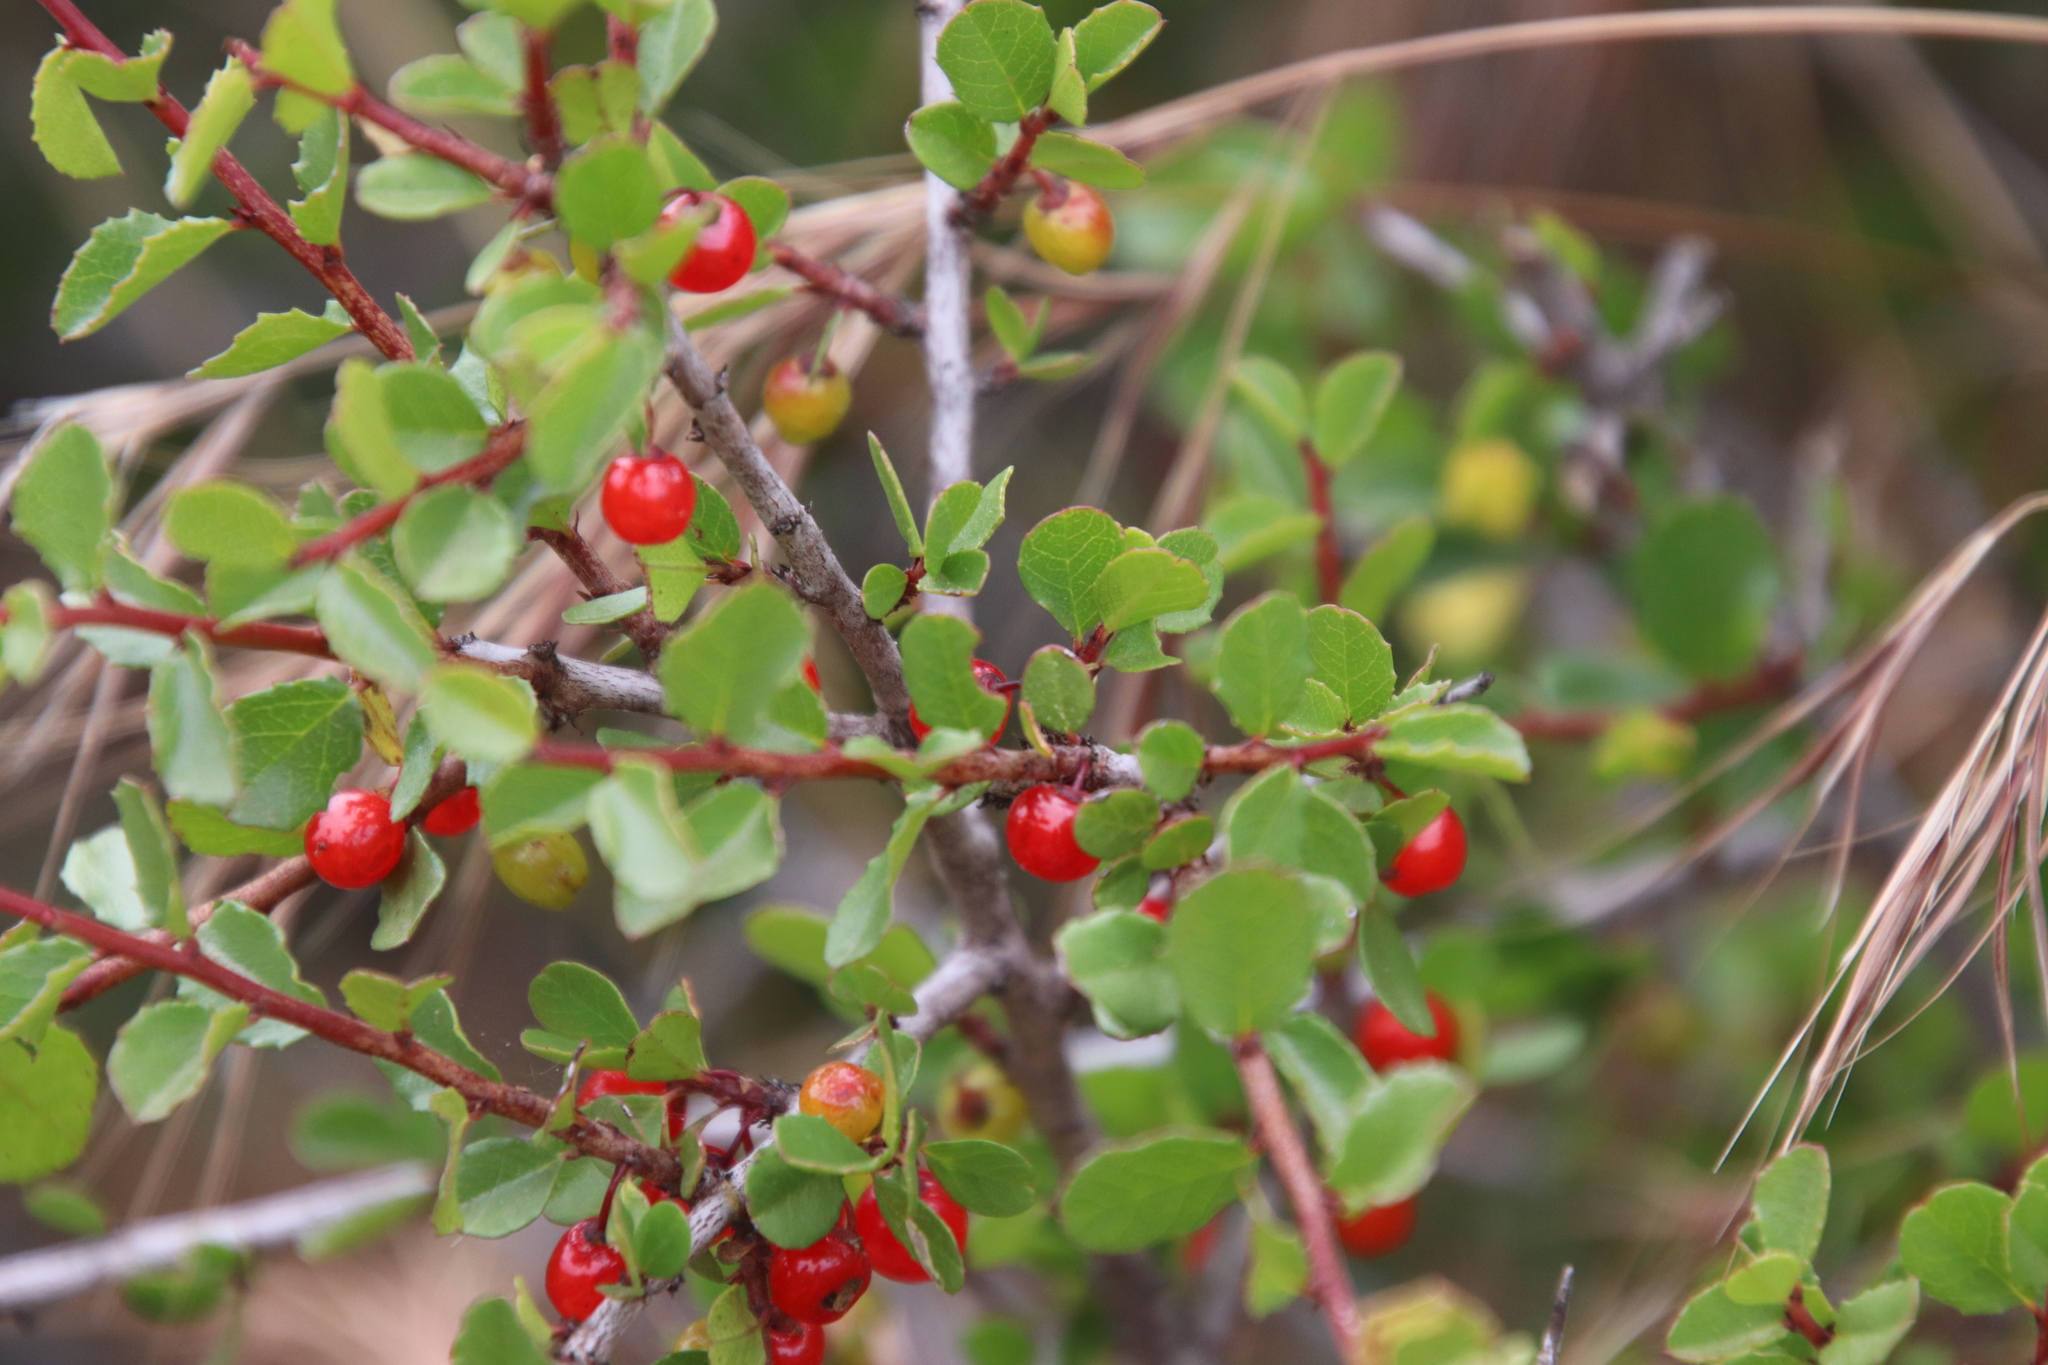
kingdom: Plantae
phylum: Tracheophyta
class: Magnoliopsida
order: Rosales
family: Rhamnaceae
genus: Endotropis
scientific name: Endotropis crocea
